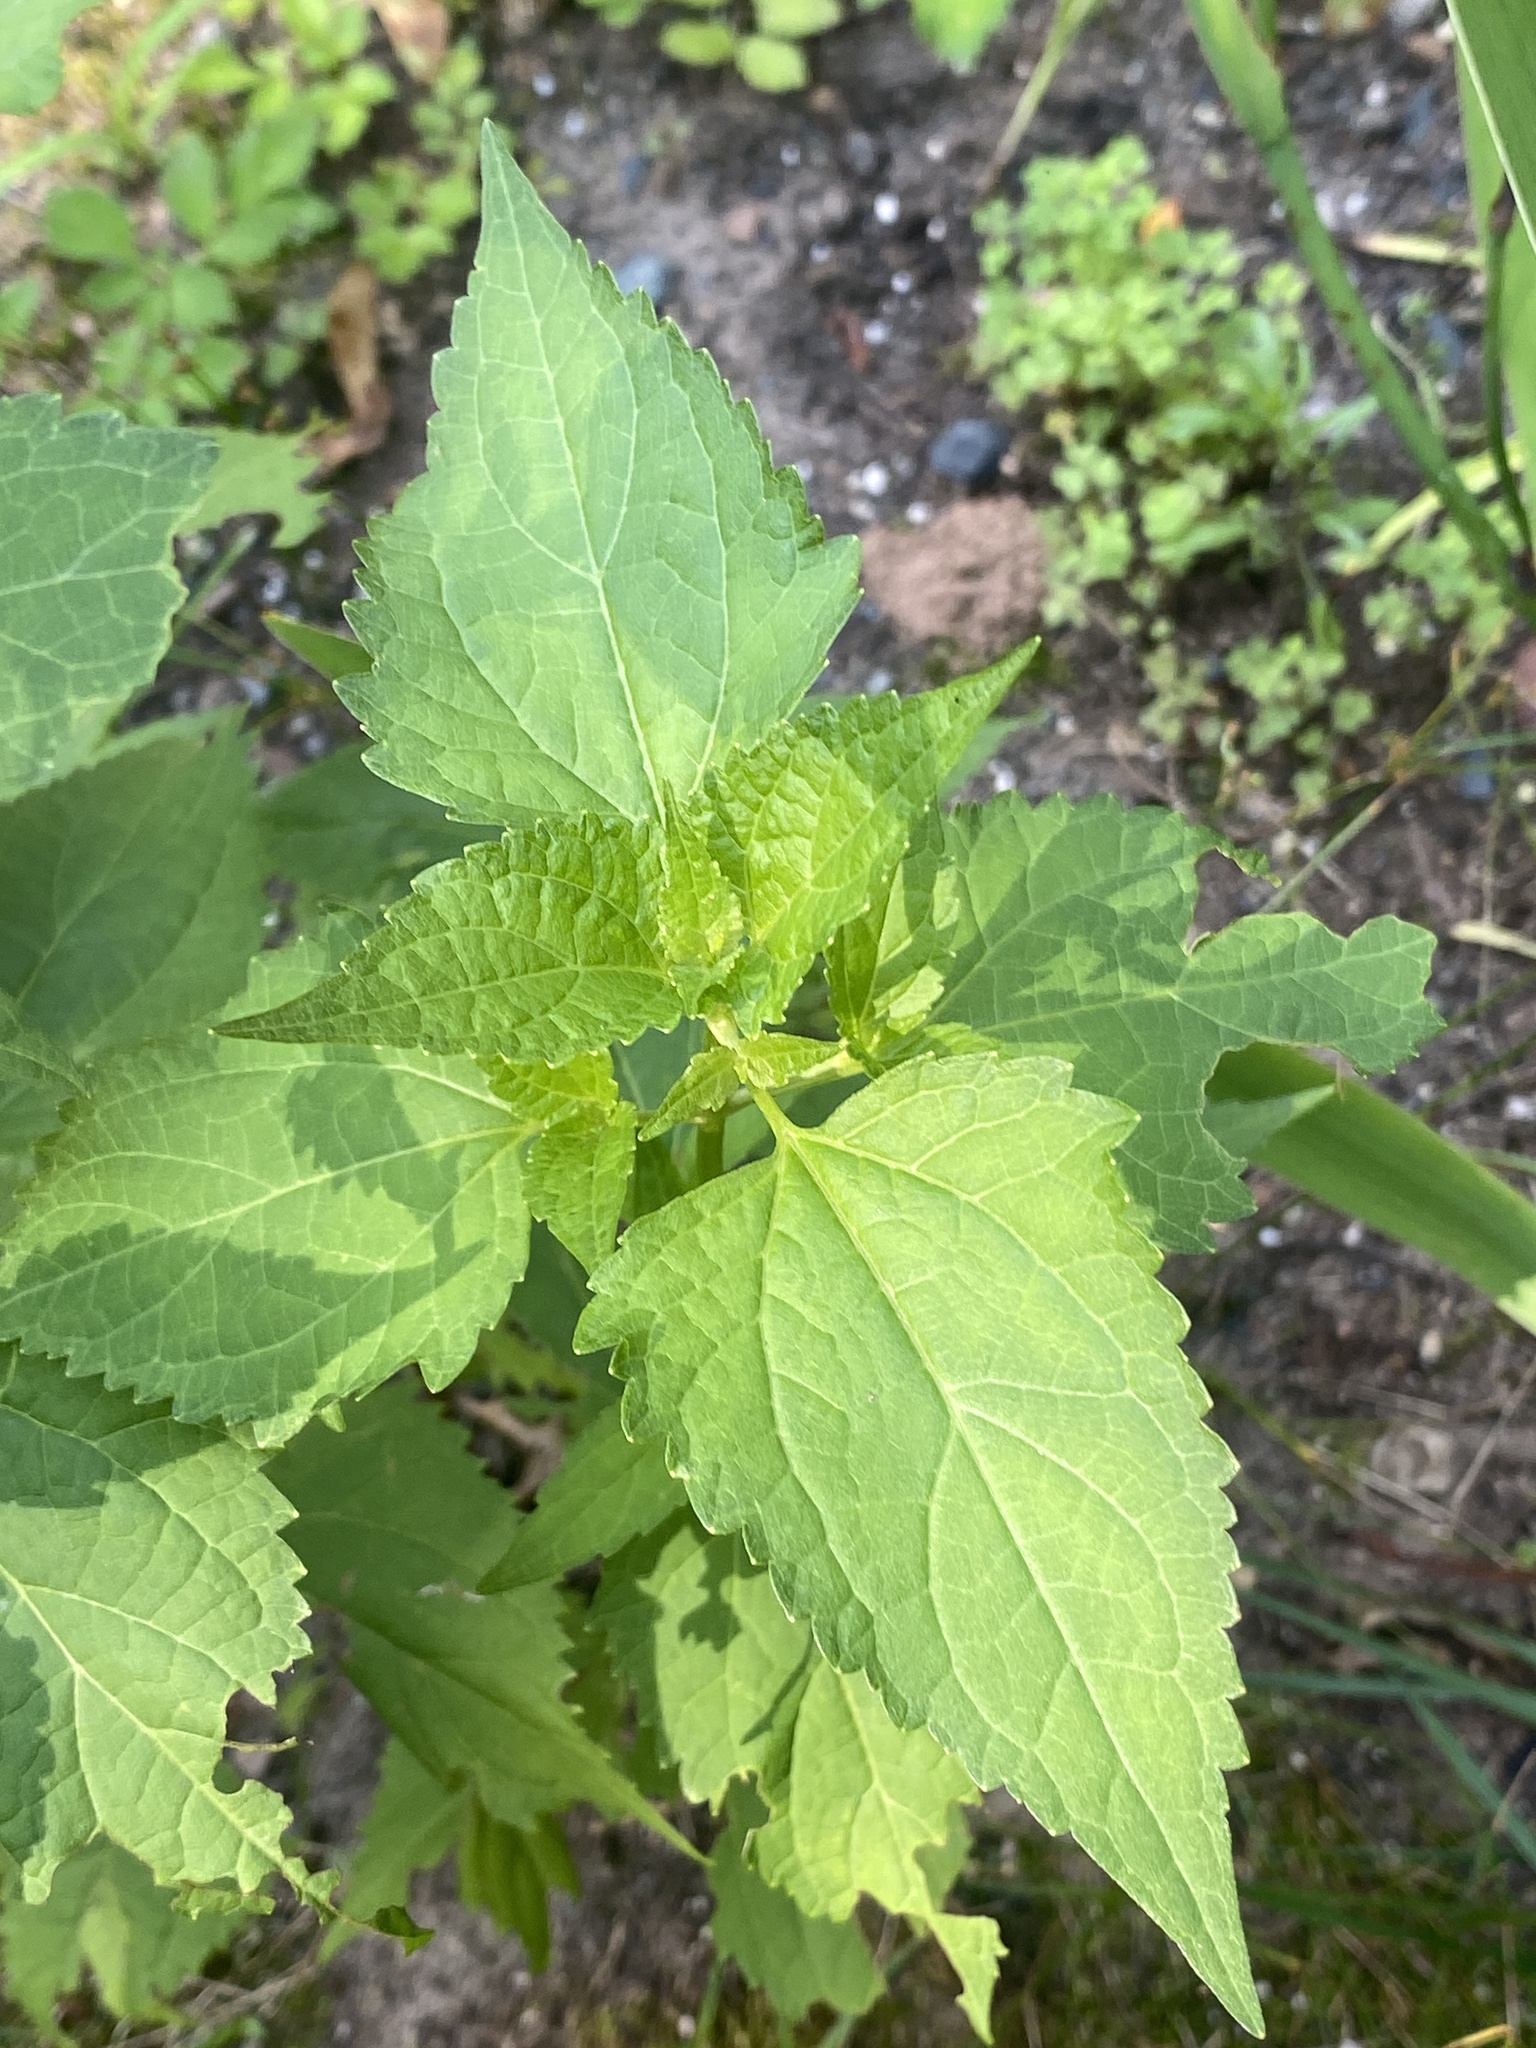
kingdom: Plantae
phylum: Tracheophyta
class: Magnoliopsida
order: Asterales
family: Asteraceae
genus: Ageratina
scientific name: Ageratina altissima
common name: White snakeroot
